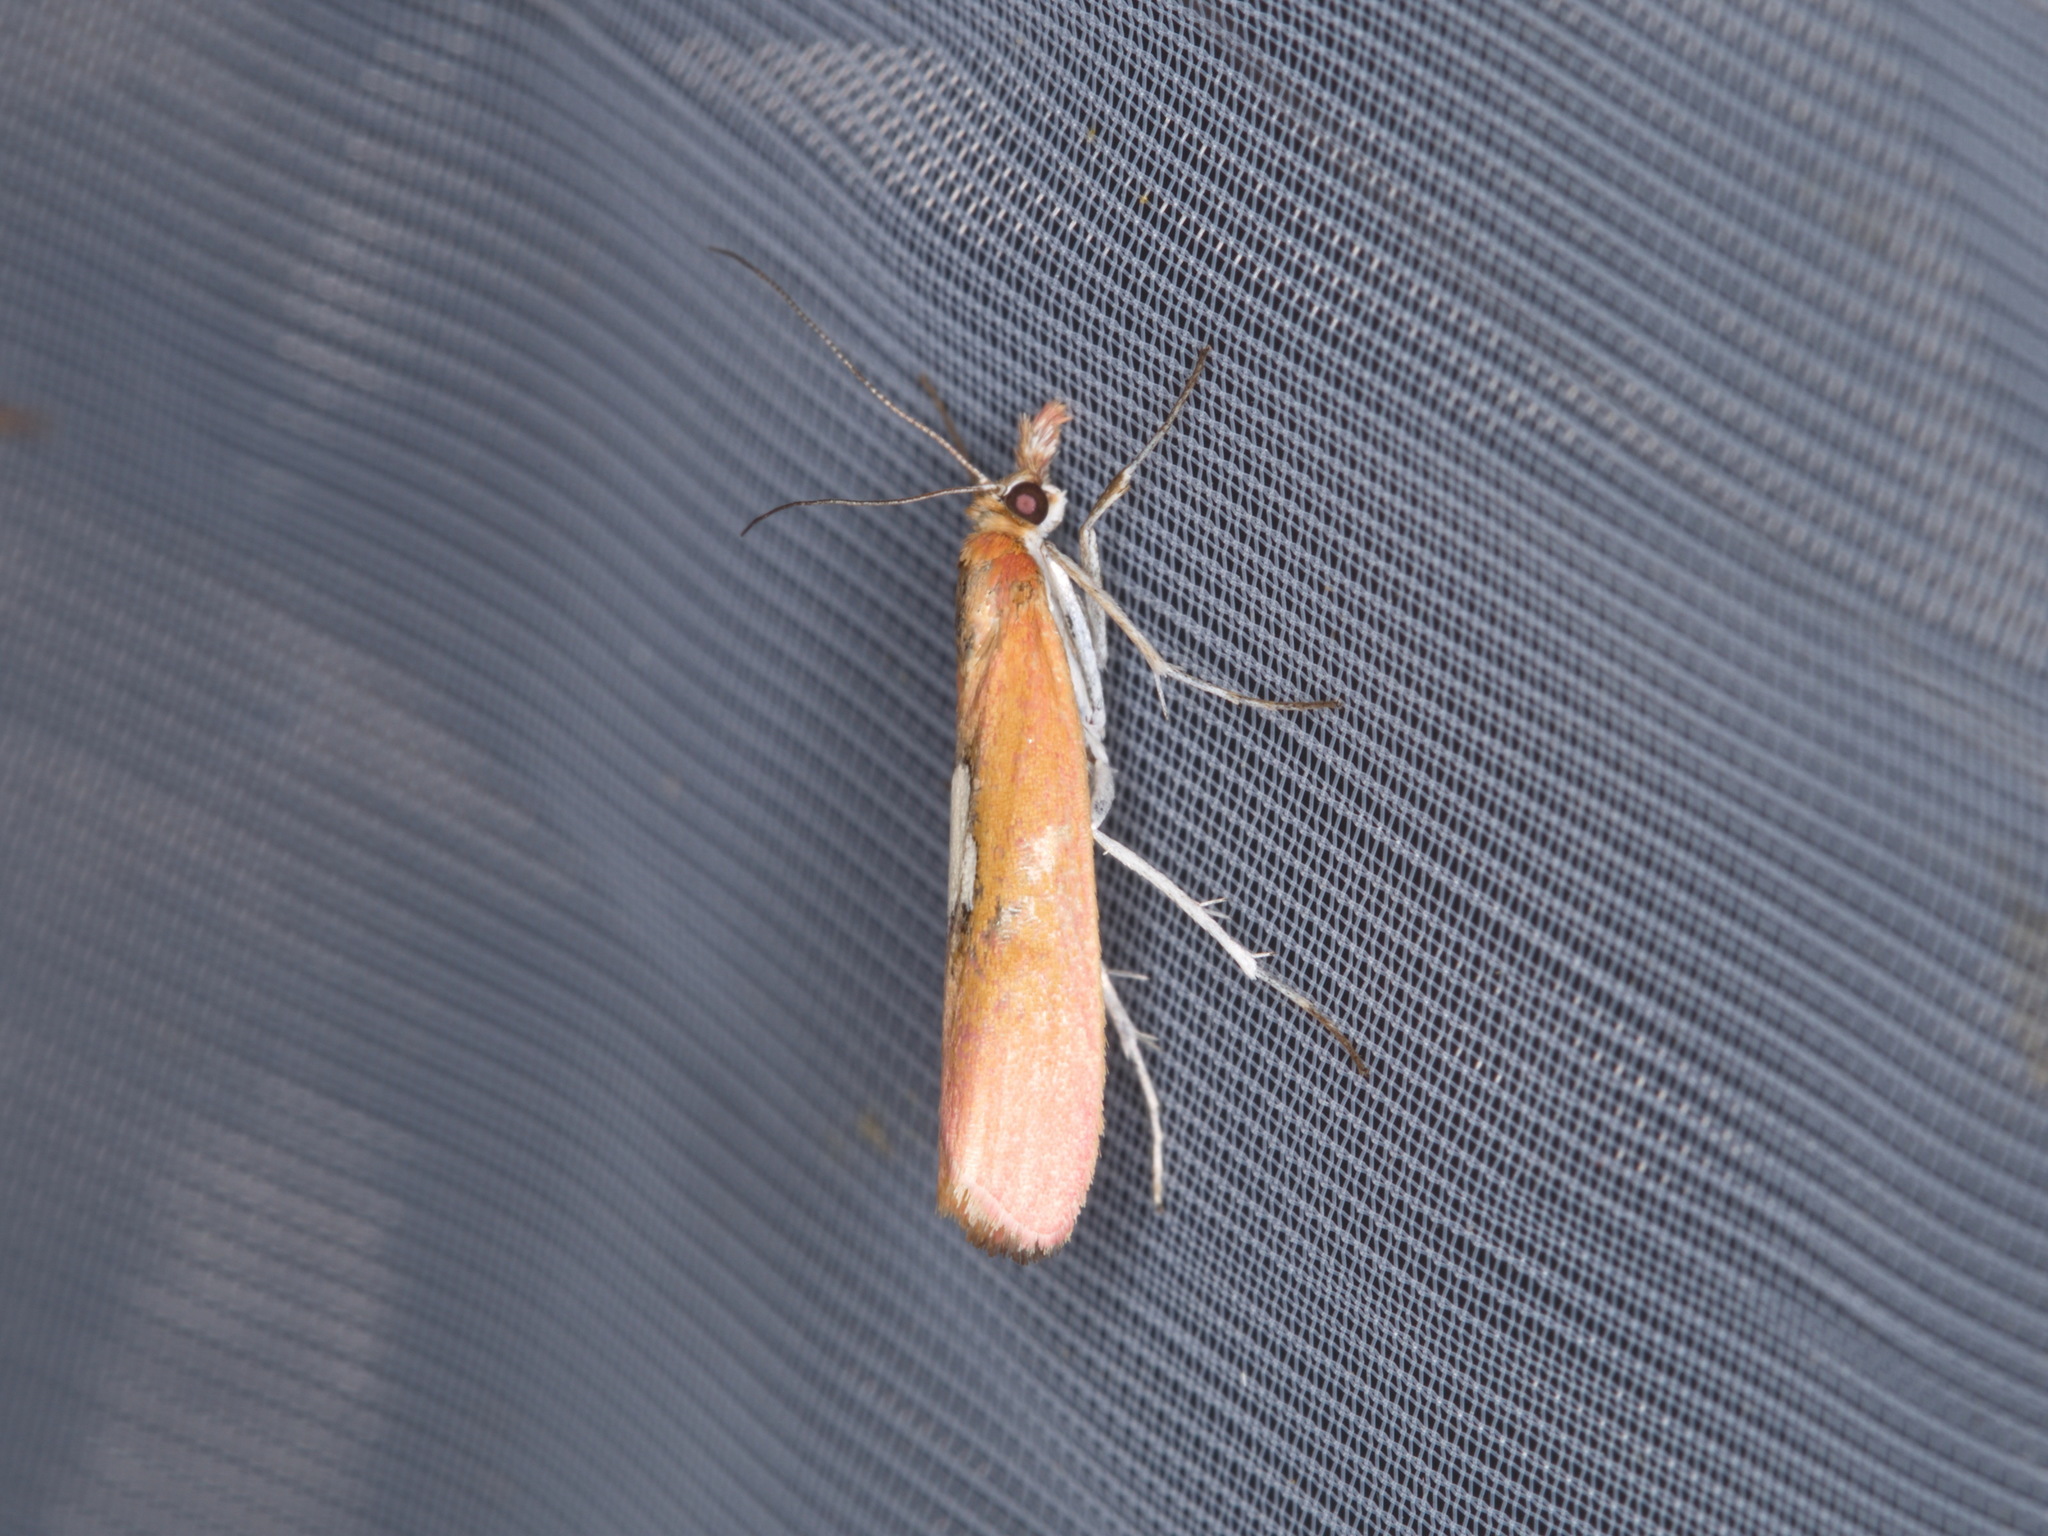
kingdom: Animalia
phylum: Arthropoda
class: Insecta
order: Lepidoptera
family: Crambidae
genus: Canuza
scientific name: Canuza euspilella
